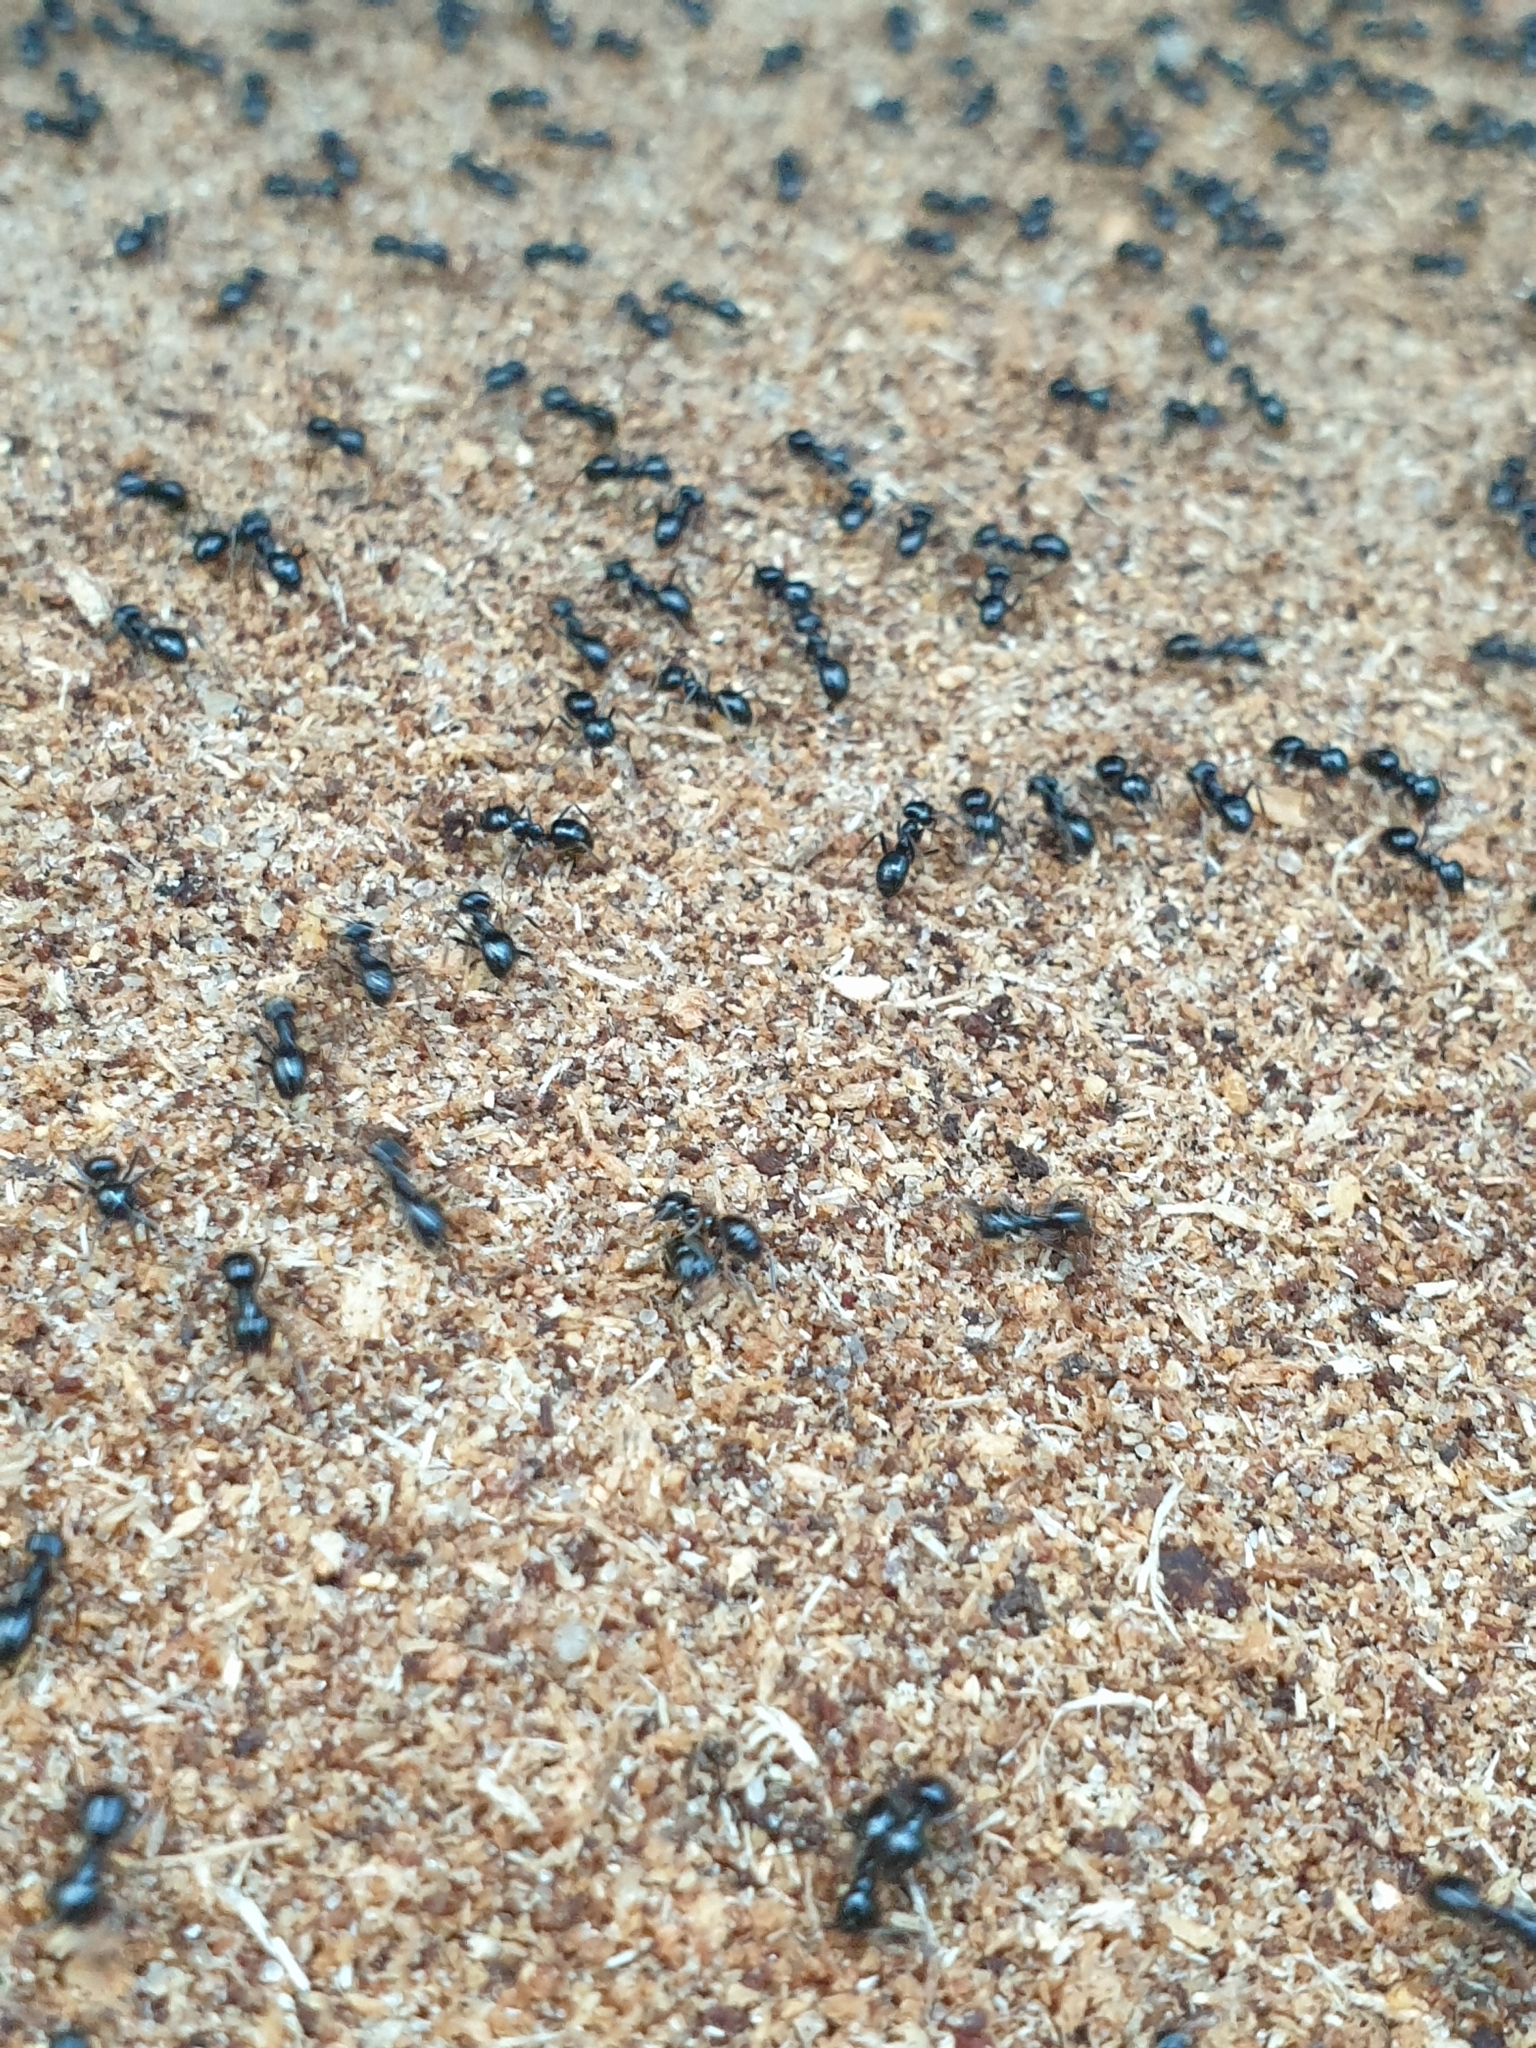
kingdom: Animalia
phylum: Arthropoda
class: Insecta
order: Hymenoptera
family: Formicidae
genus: Lasius
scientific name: Lasius fuliginosus
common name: Jet ant
